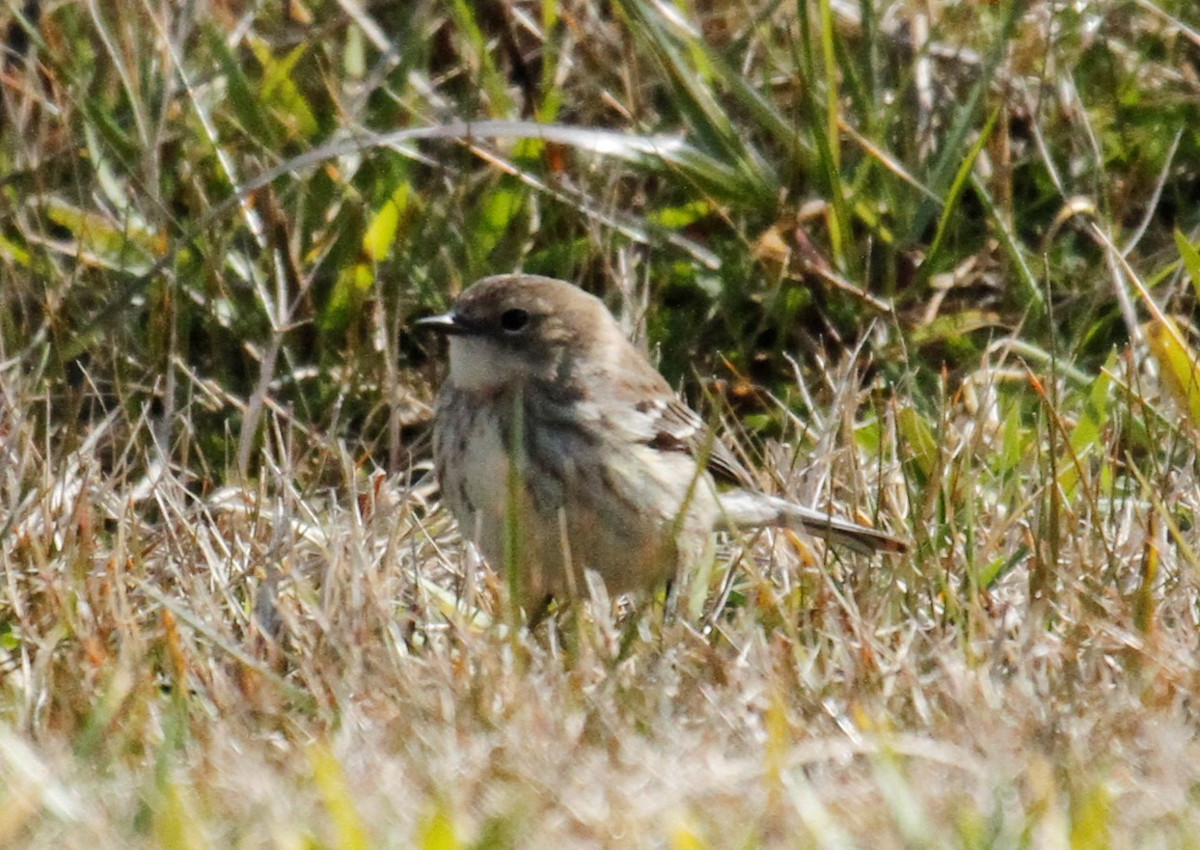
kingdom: Animalia
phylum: Chordata
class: Aves
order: Passeriformes
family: Parulidae
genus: Setophaga
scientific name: Setophaga coronata
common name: Myrtle warbler
